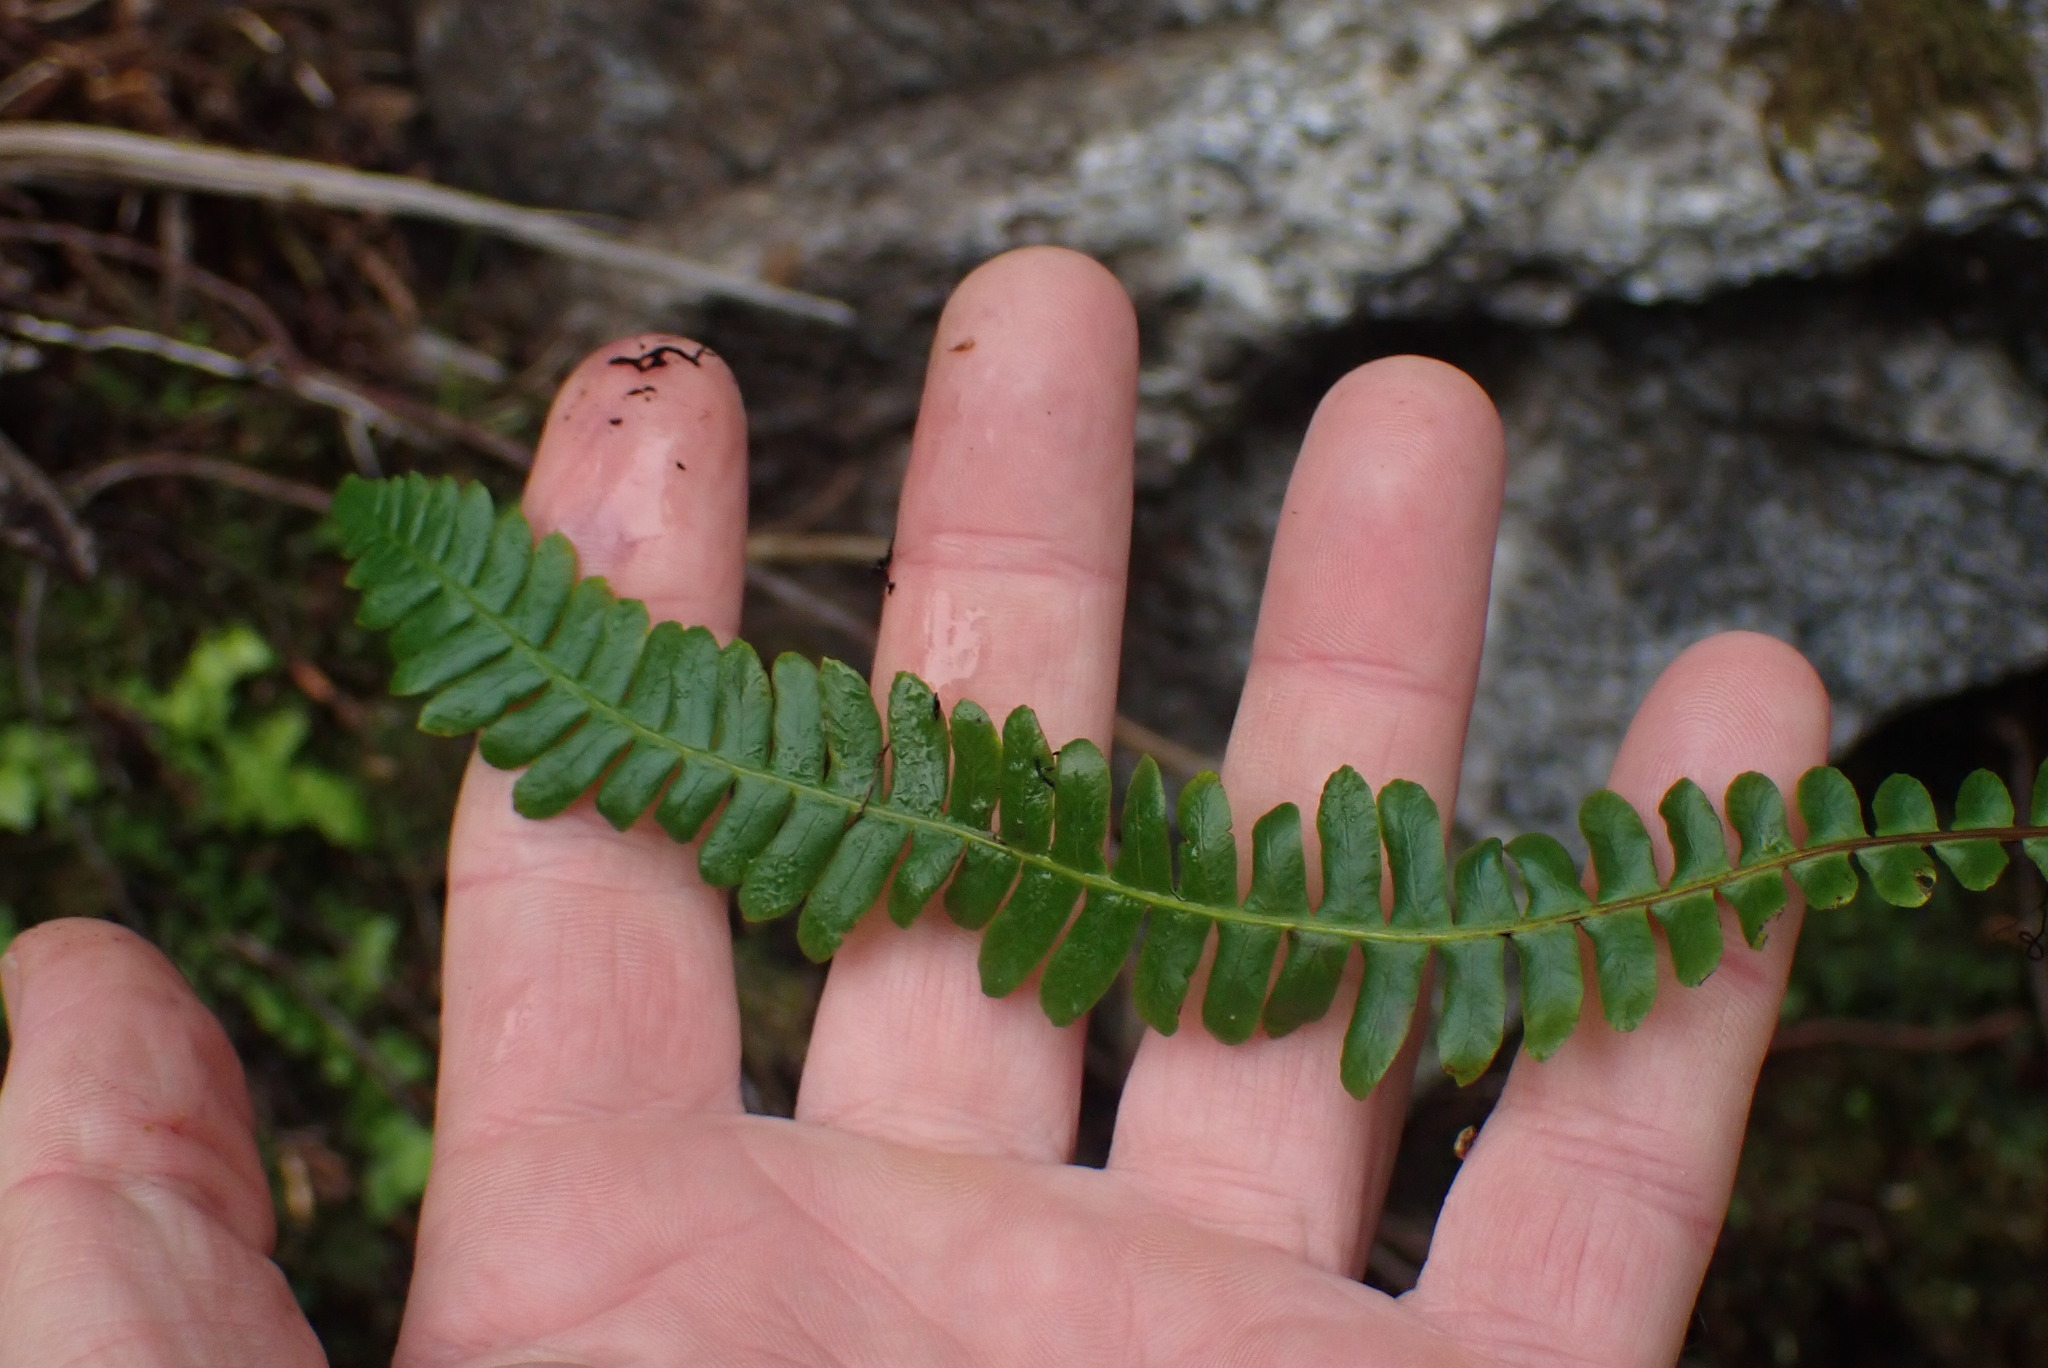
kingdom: Plantae
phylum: Tracheophyta
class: Polypodiopsida
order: Polypodiales
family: Blechnaceae
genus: Struthiopteris
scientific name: Struthiopteris spicant
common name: Deer fern
